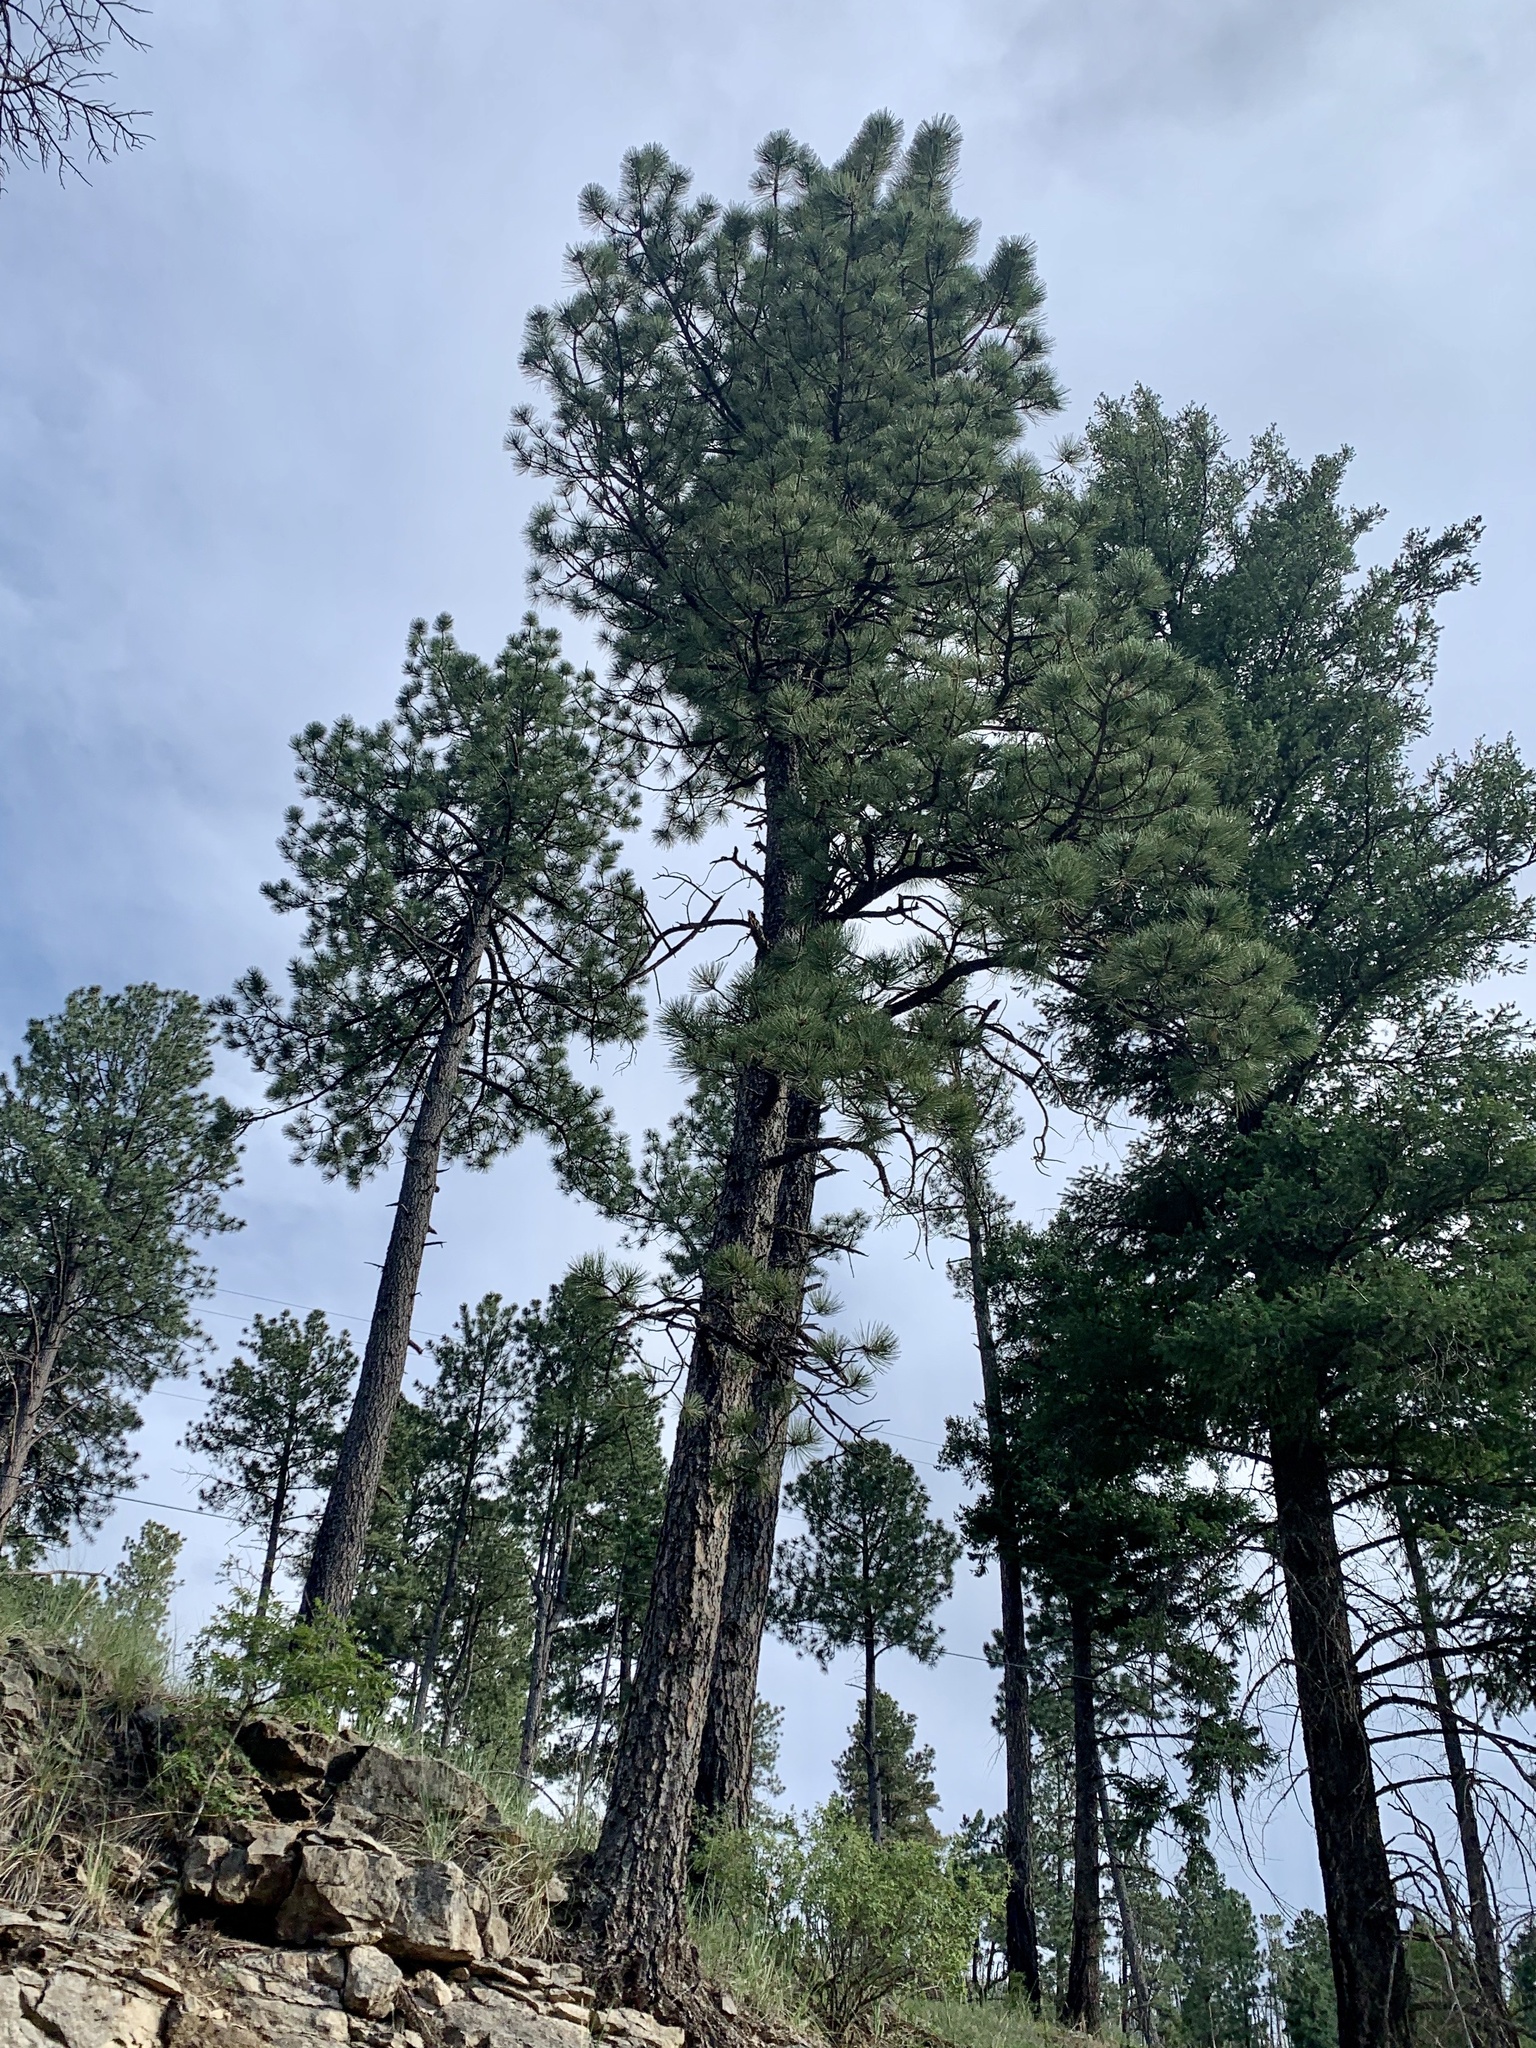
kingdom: Plantae
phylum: Tracheophyta
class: Pinopsida
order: Pinales
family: Pinaceae
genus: Pinus
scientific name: Pinus ponderosa
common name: Western yellow-pine
